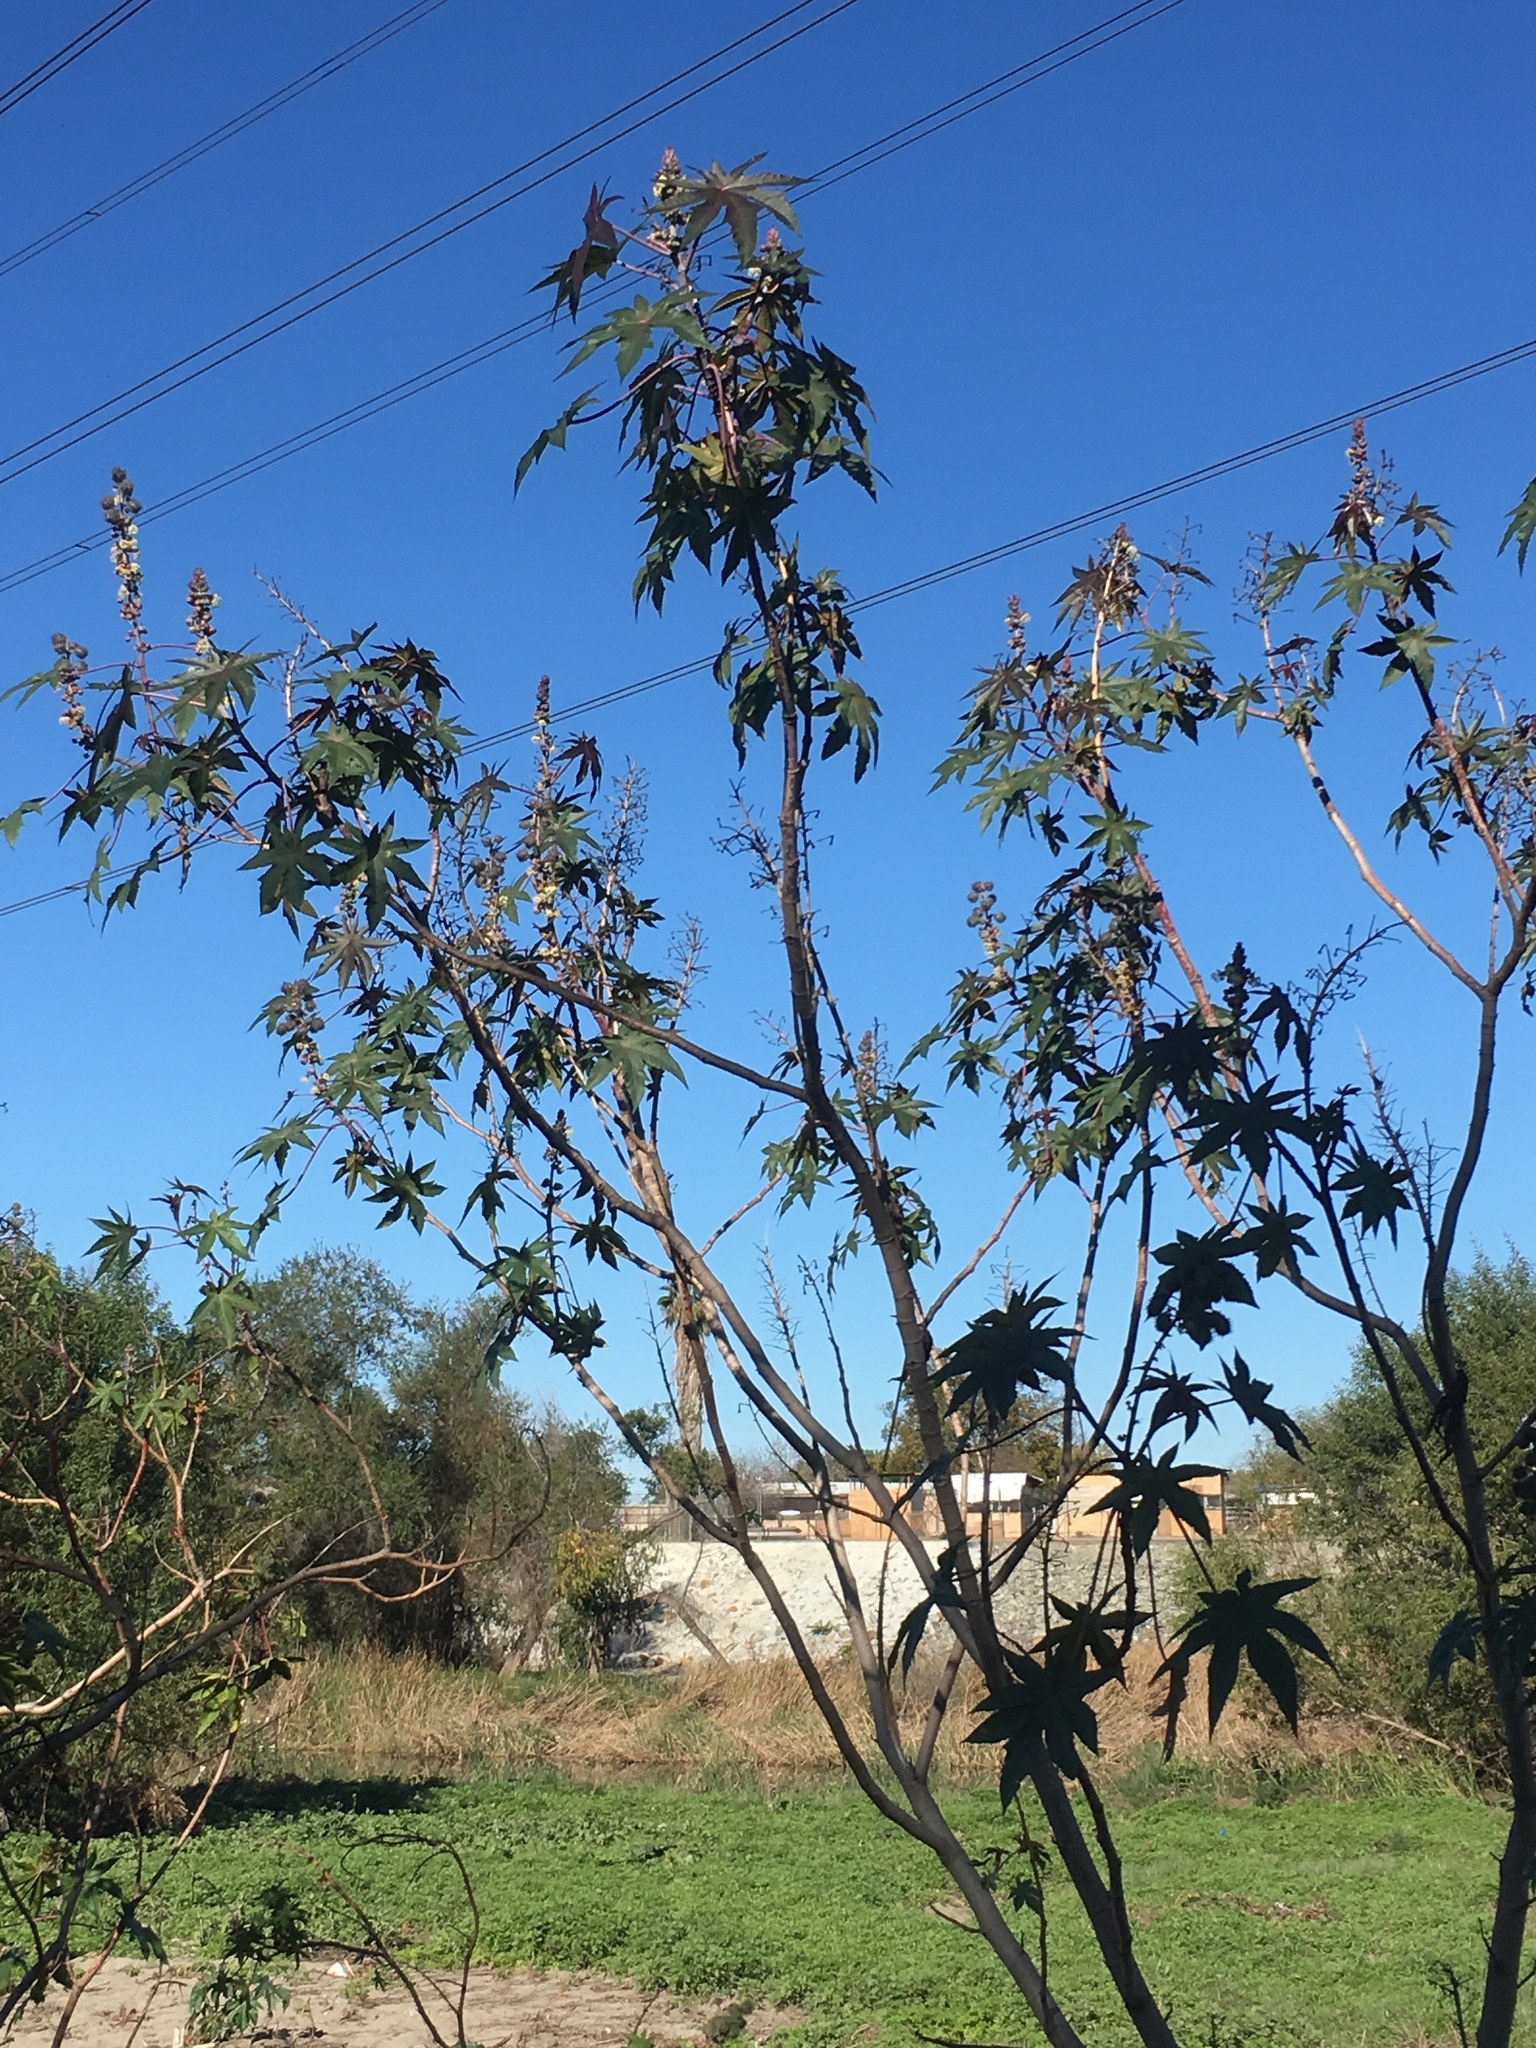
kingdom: Plantae
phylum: Tracheophyta
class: Magnoliopsida
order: Malpighiales
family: Euphorbiaceae
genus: Ricinus
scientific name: Ricinus communis
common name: Castor-oil-plant
